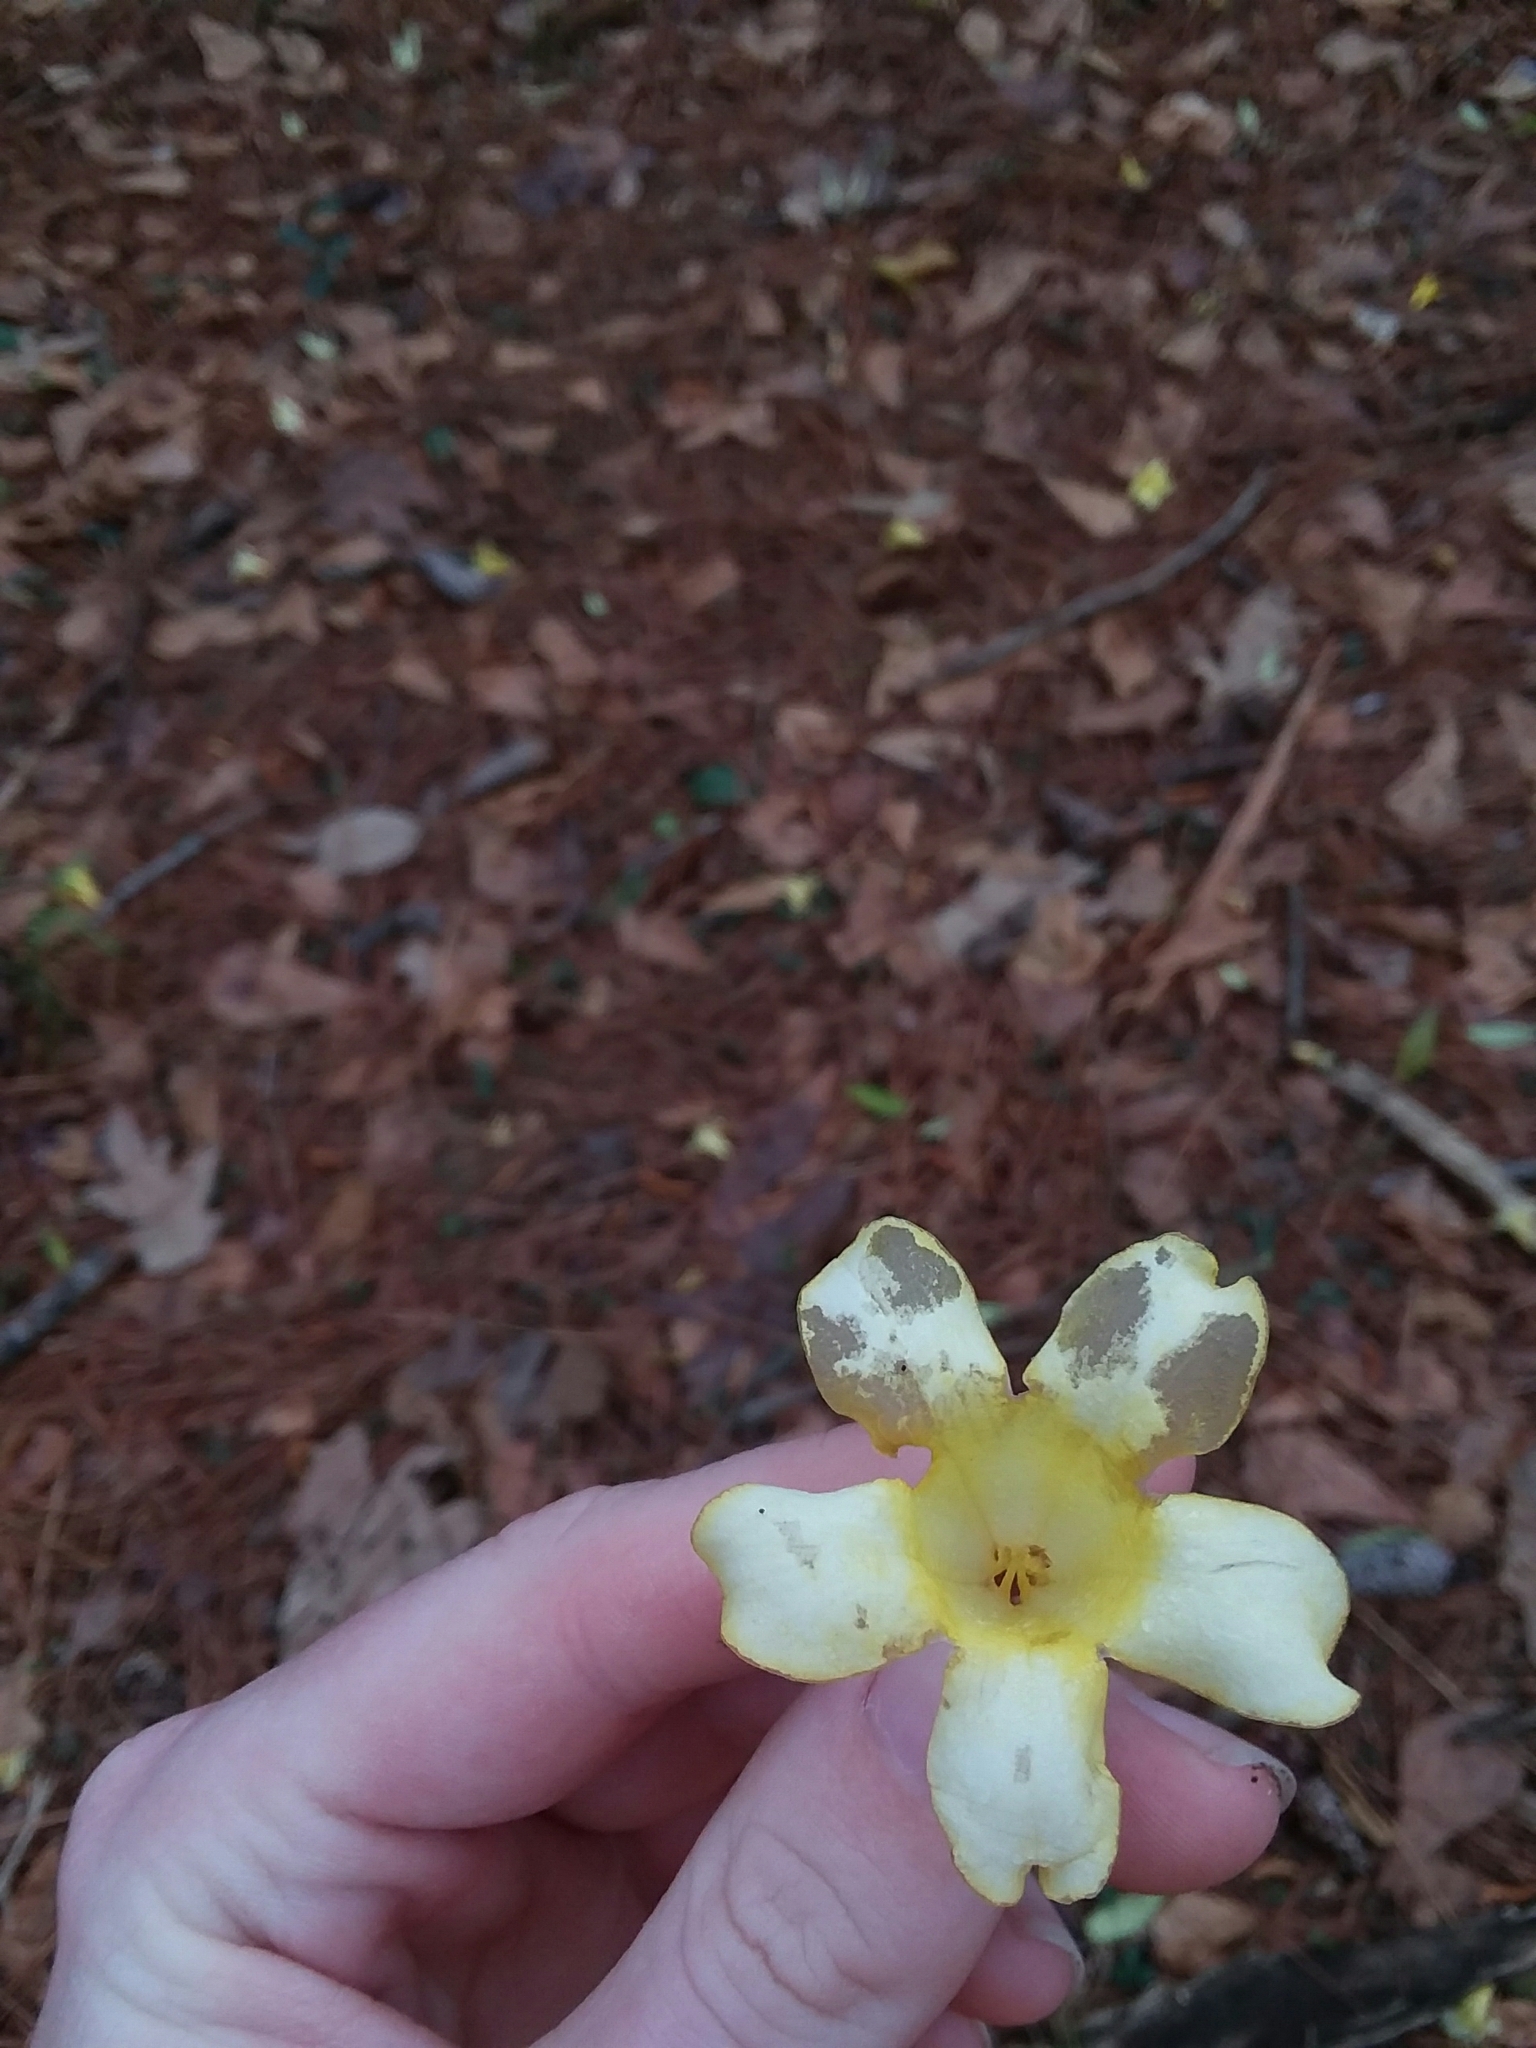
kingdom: Plantae
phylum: Tracheophyta
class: Magnoliopsida
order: Gentianales
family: Gelsemiaceae
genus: Gelsemium
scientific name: Gelsemium sempervirens
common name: Carolina-jasmine
